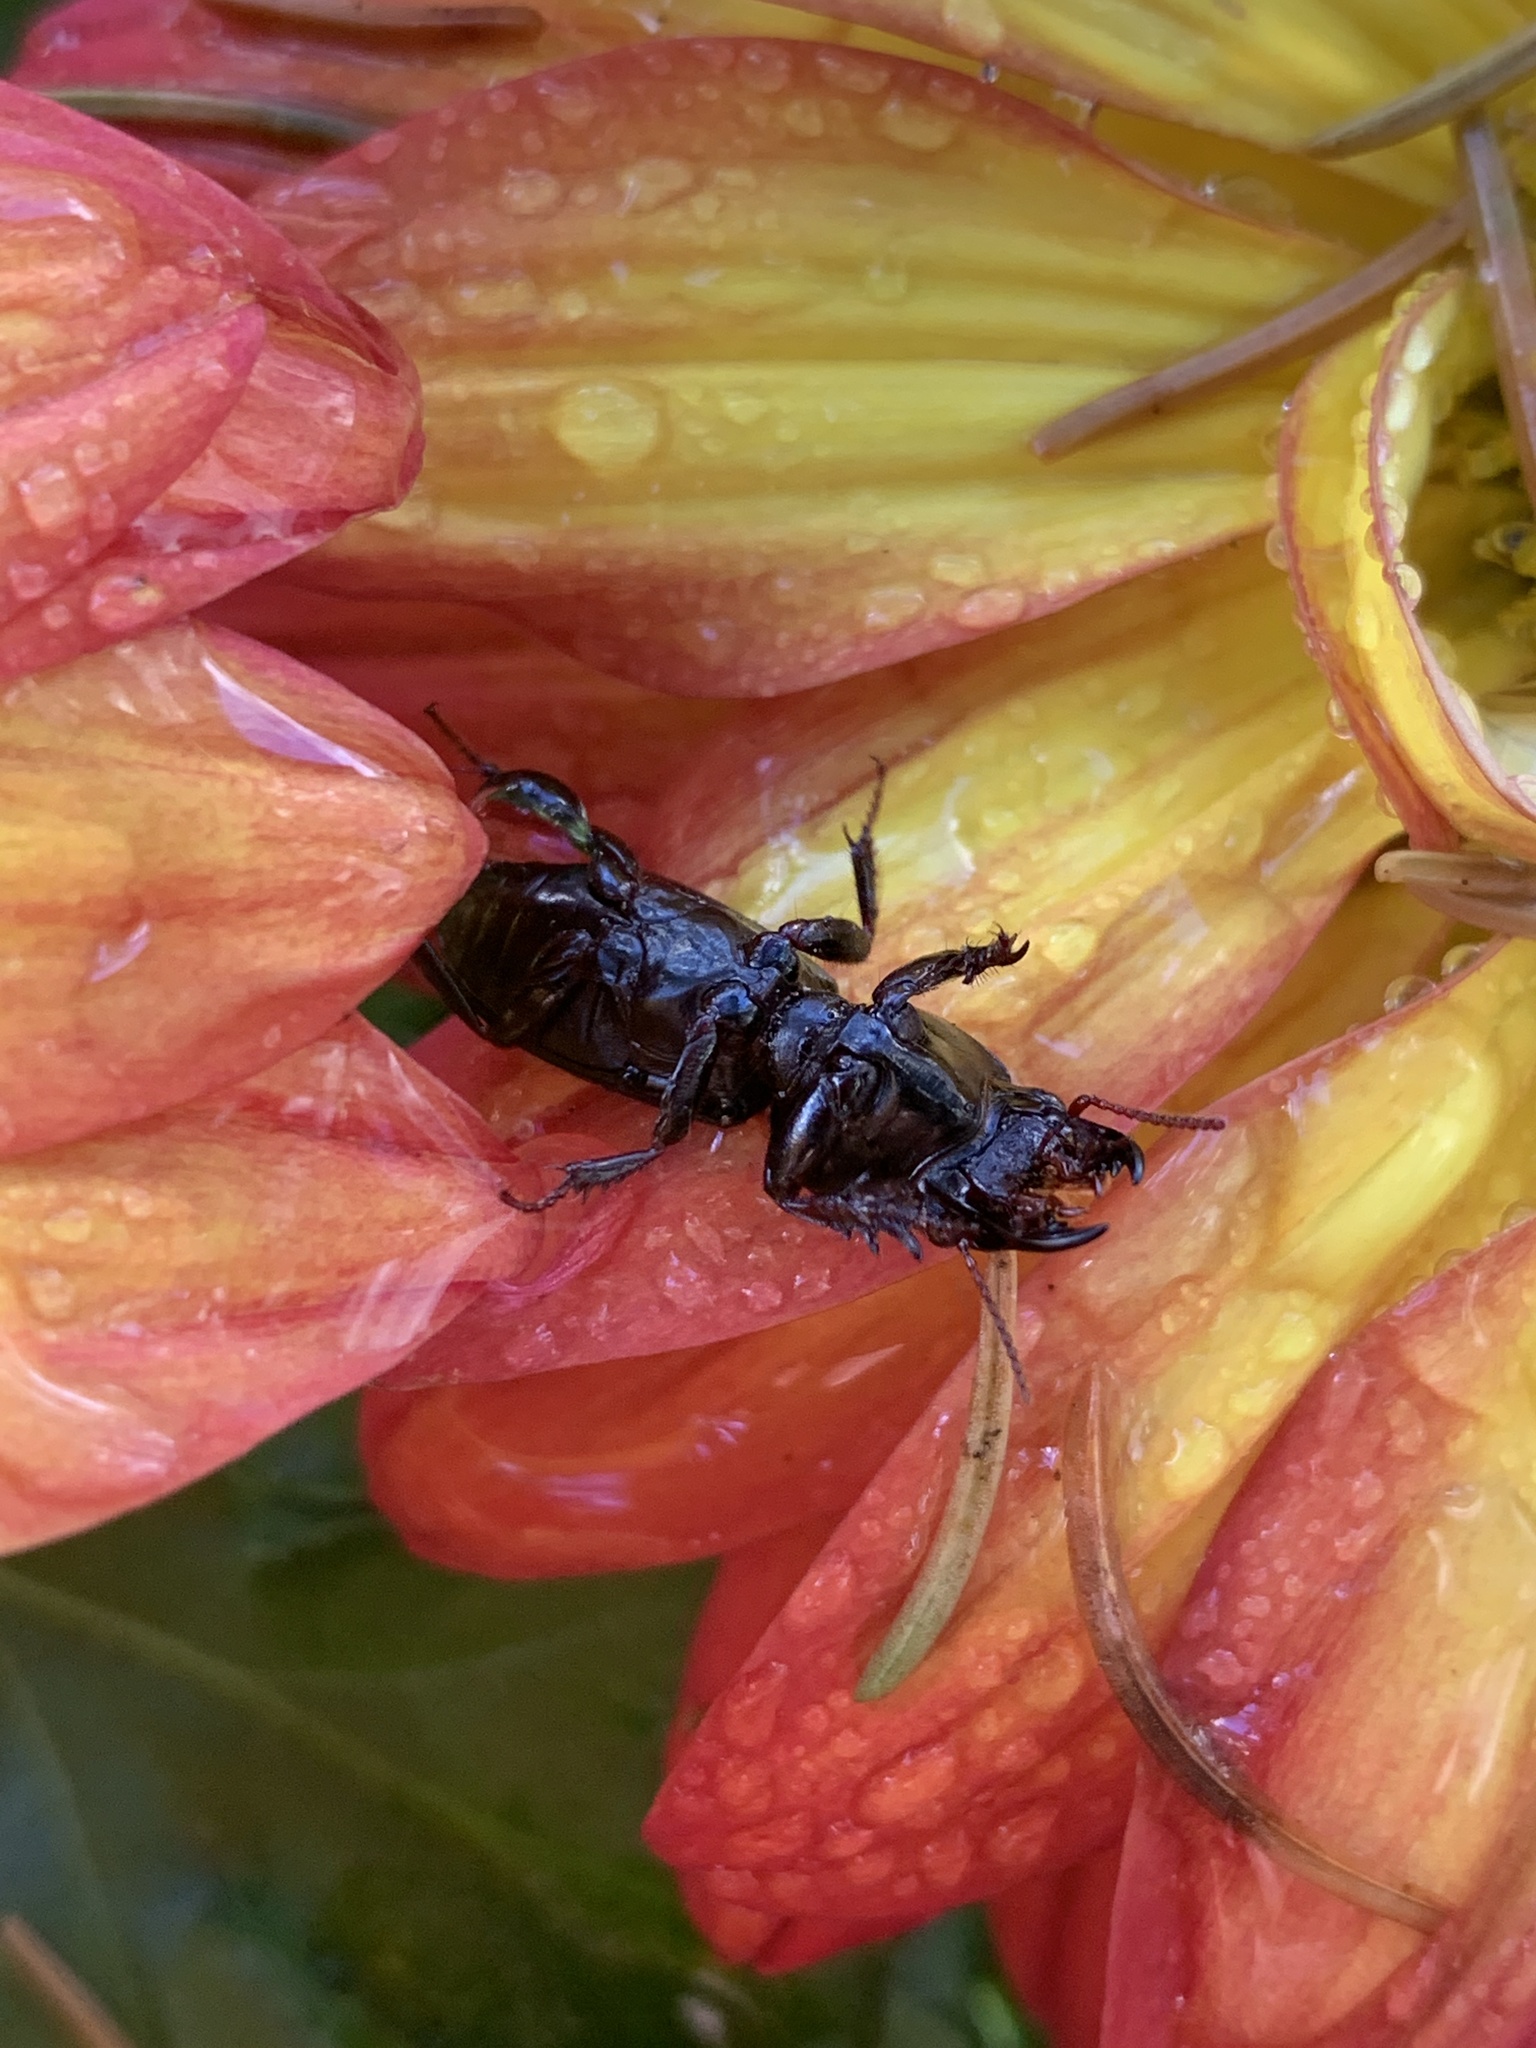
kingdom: Animalia
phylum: Arthropoda
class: Insecta
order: Coleoptera
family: Carabidae
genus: Scarites
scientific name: Scarites subterraneus
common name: Big-headed ground beetle
